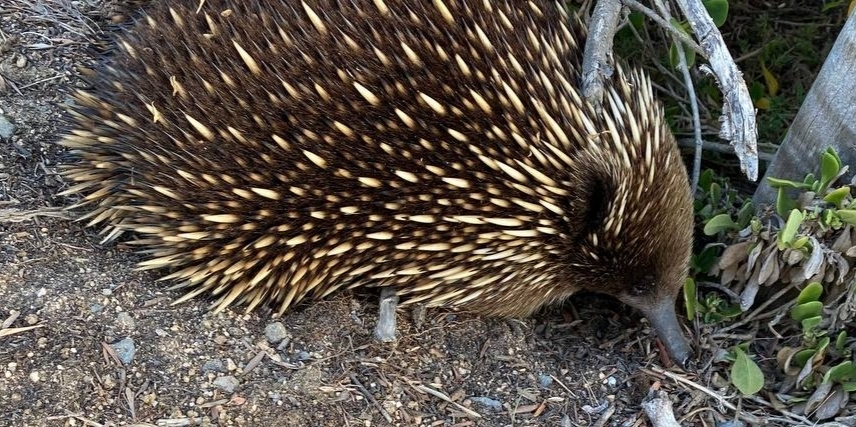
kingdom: Animalia
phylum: Chordata
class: Mammalia
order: Monotremata
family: Tachyglossidae
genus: Tachyglossus
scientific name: Tachyglossus aculeatus
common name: Short-beaked echidna
